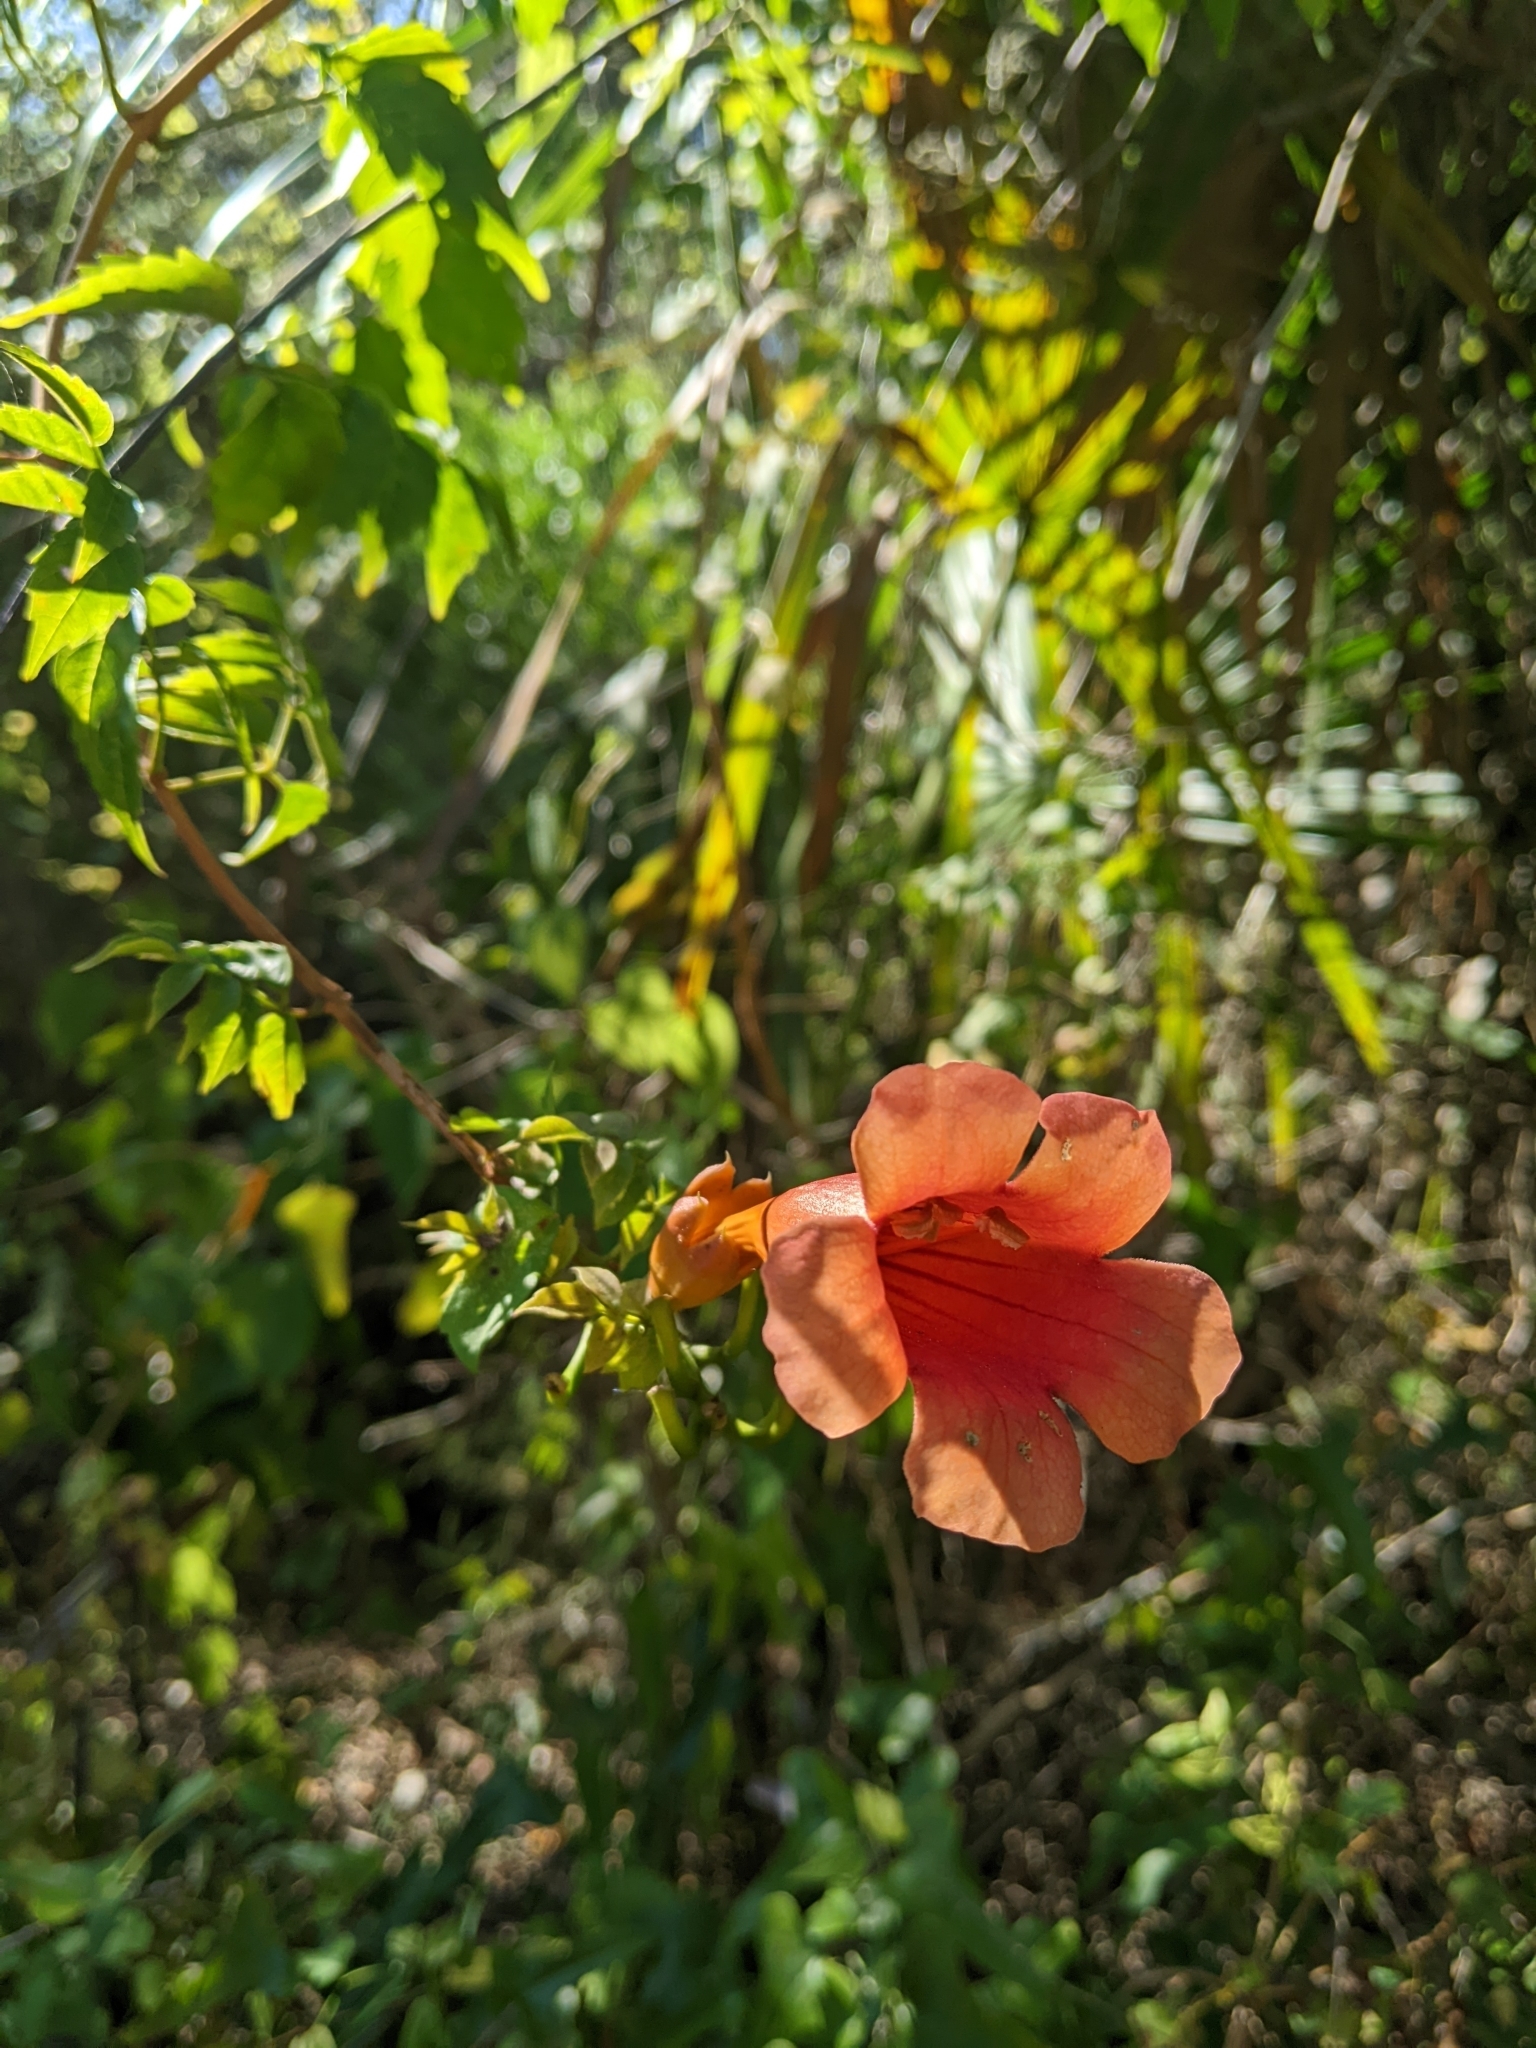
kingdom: Plantae
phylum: Tracheophyta
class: Magnoliopsida
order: Lamiales
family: Bignoniaceae
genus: Campsis
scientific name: Campsis radicans
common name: Trumpet-creeper
